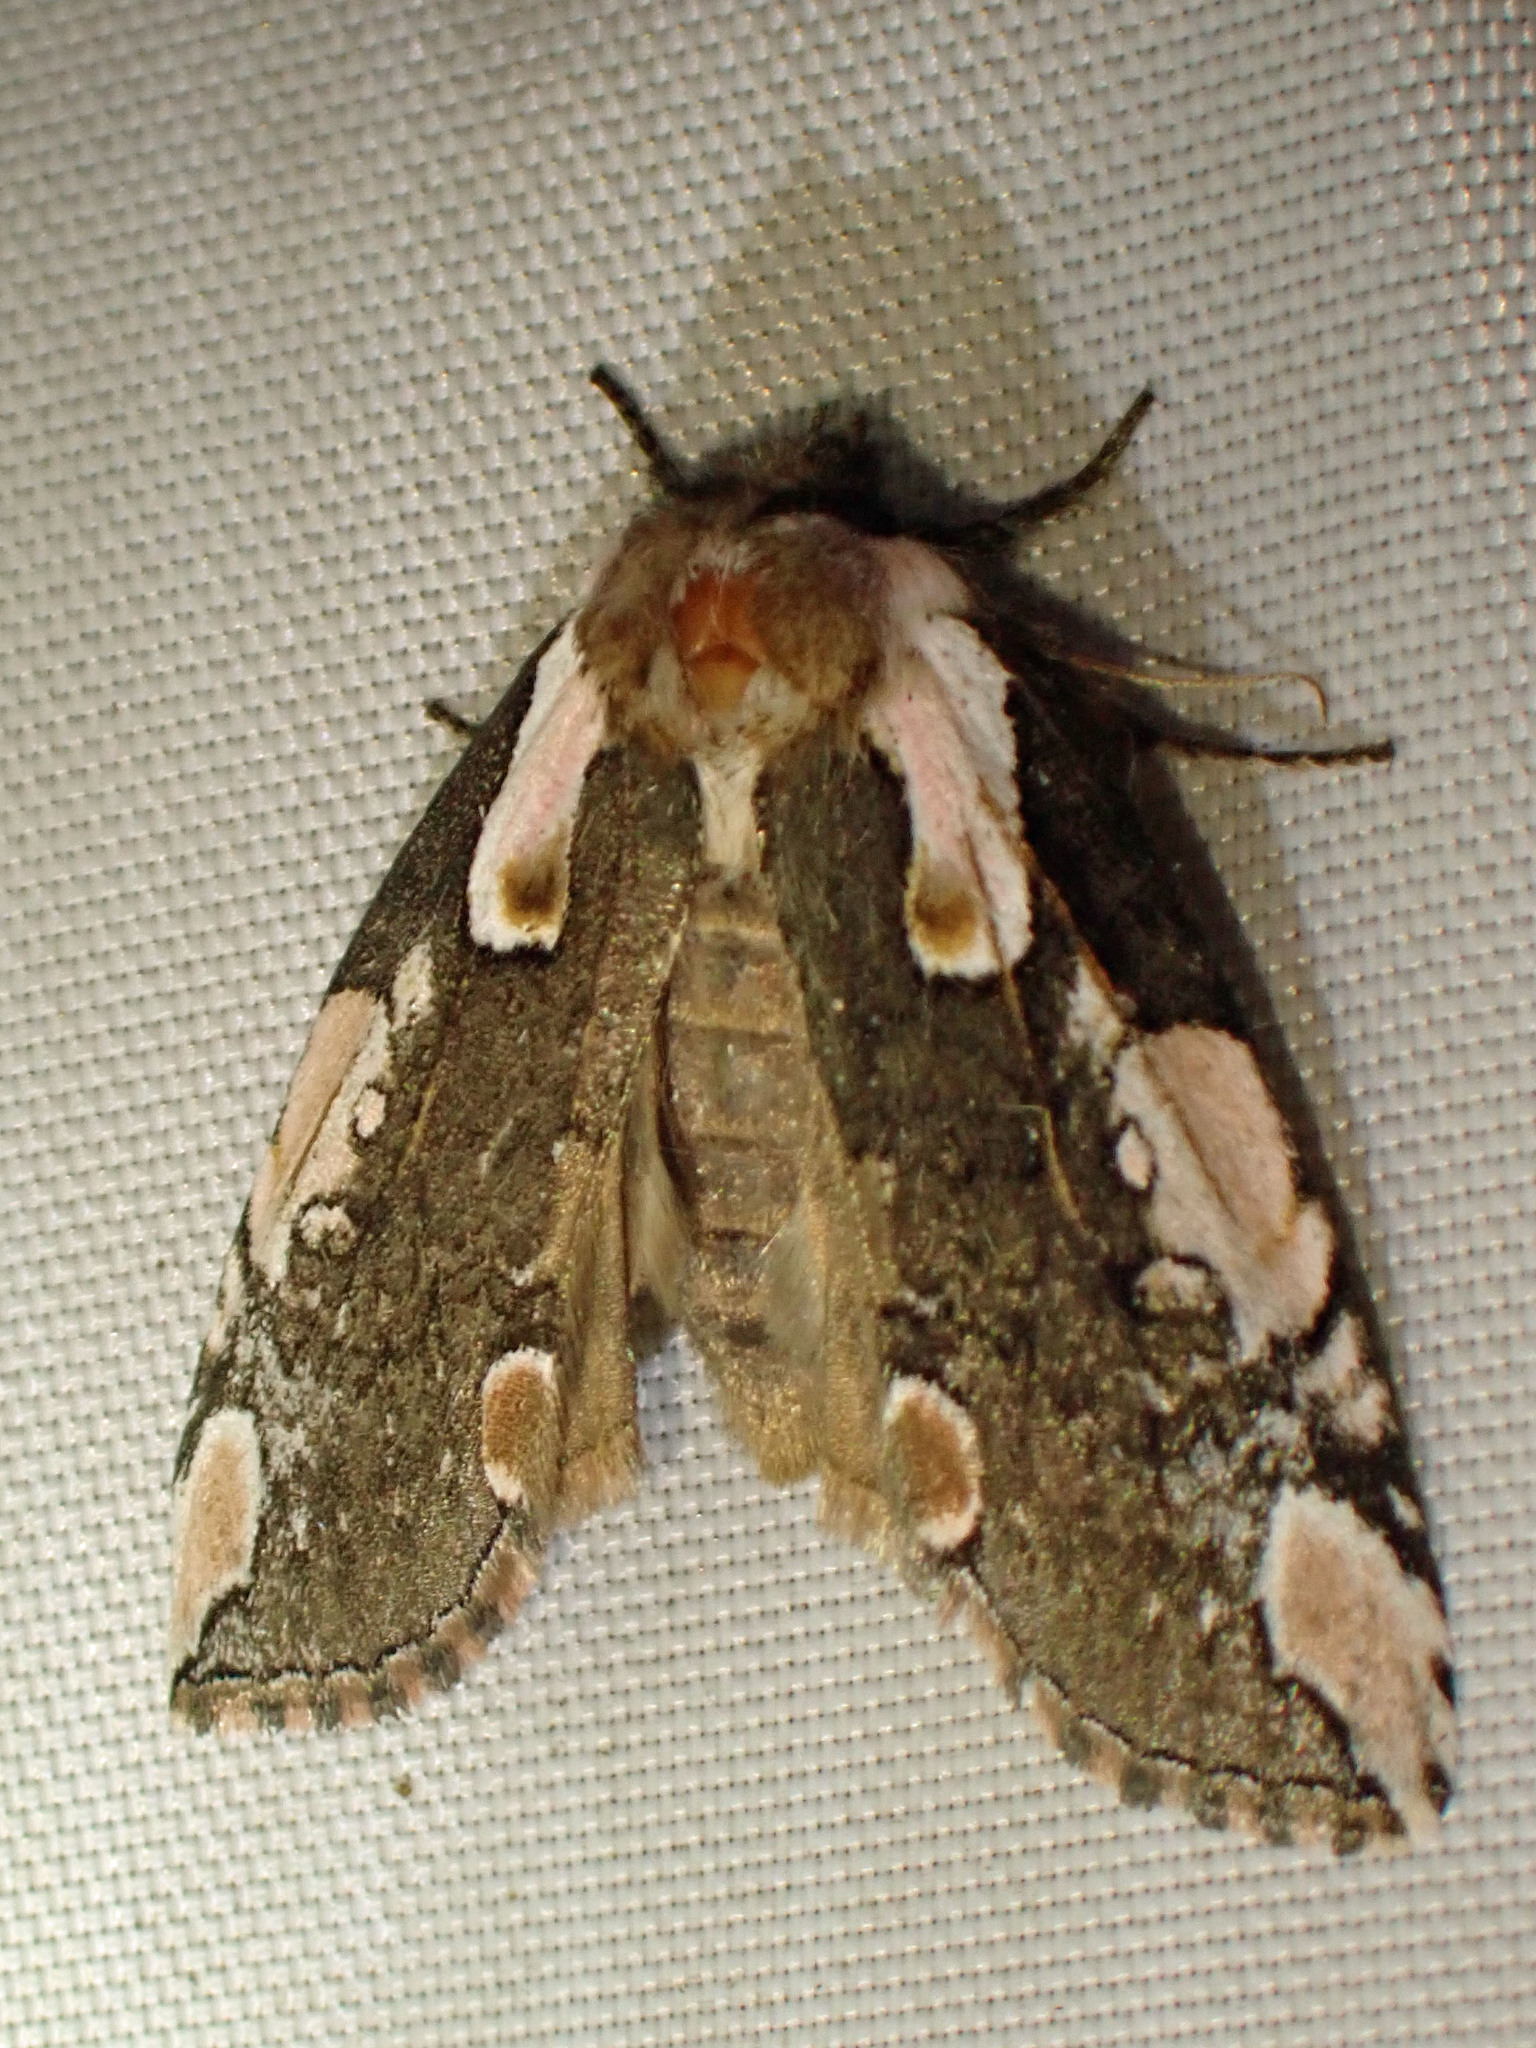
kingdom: Animalia
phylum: Arthropoda
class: Insecta
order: Lepidoptera
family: Drepanidae
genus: Euthyatira
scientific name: Euthyatira pudens
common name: Dogwood thyatirid moth
